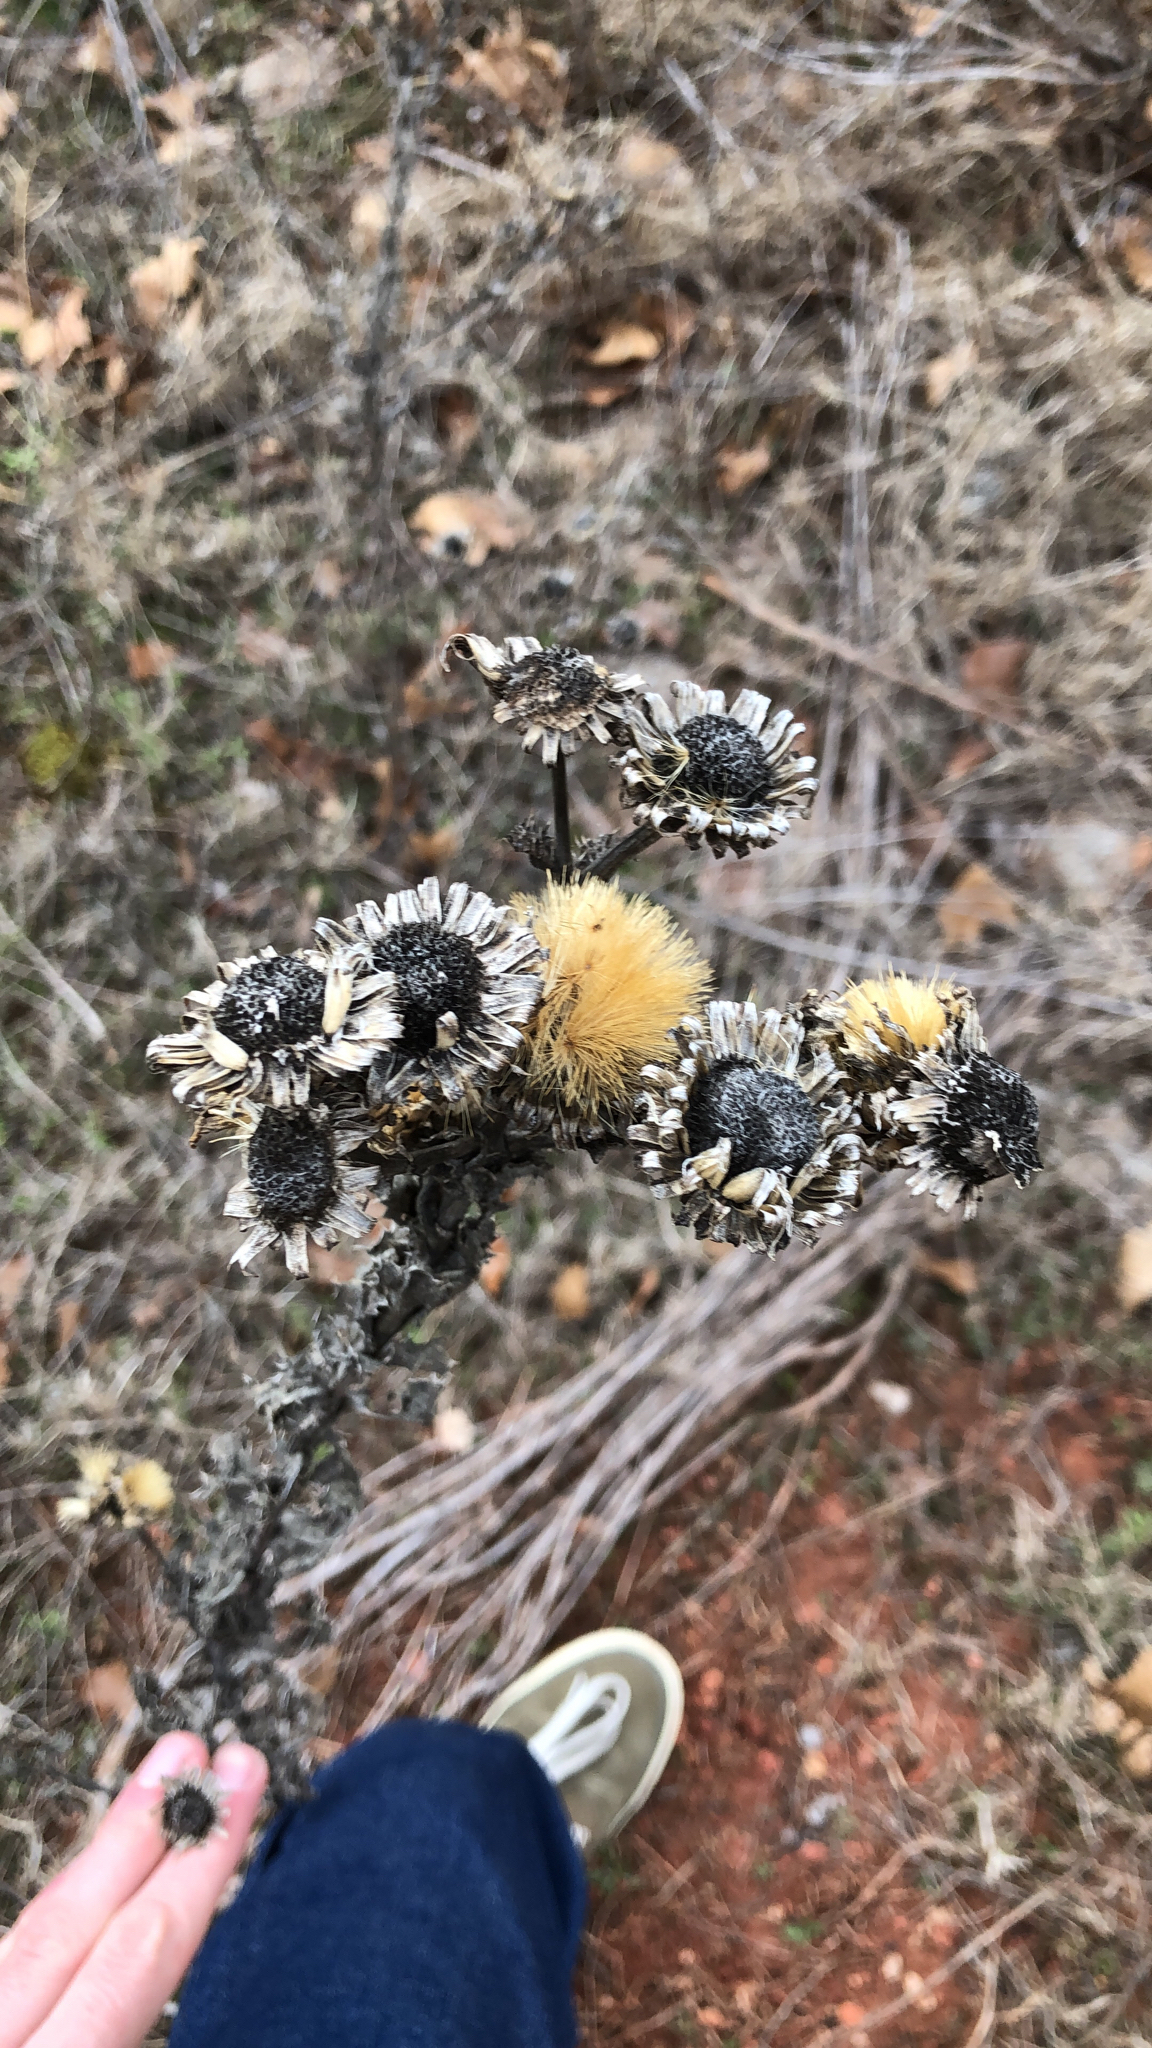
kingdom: Plantae
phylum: Tracheophyta
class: Magnoliopsida
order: Asterales
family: Asteraceae
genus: Grindelia
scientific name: Grindelia ciliata
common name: Goldenweed
